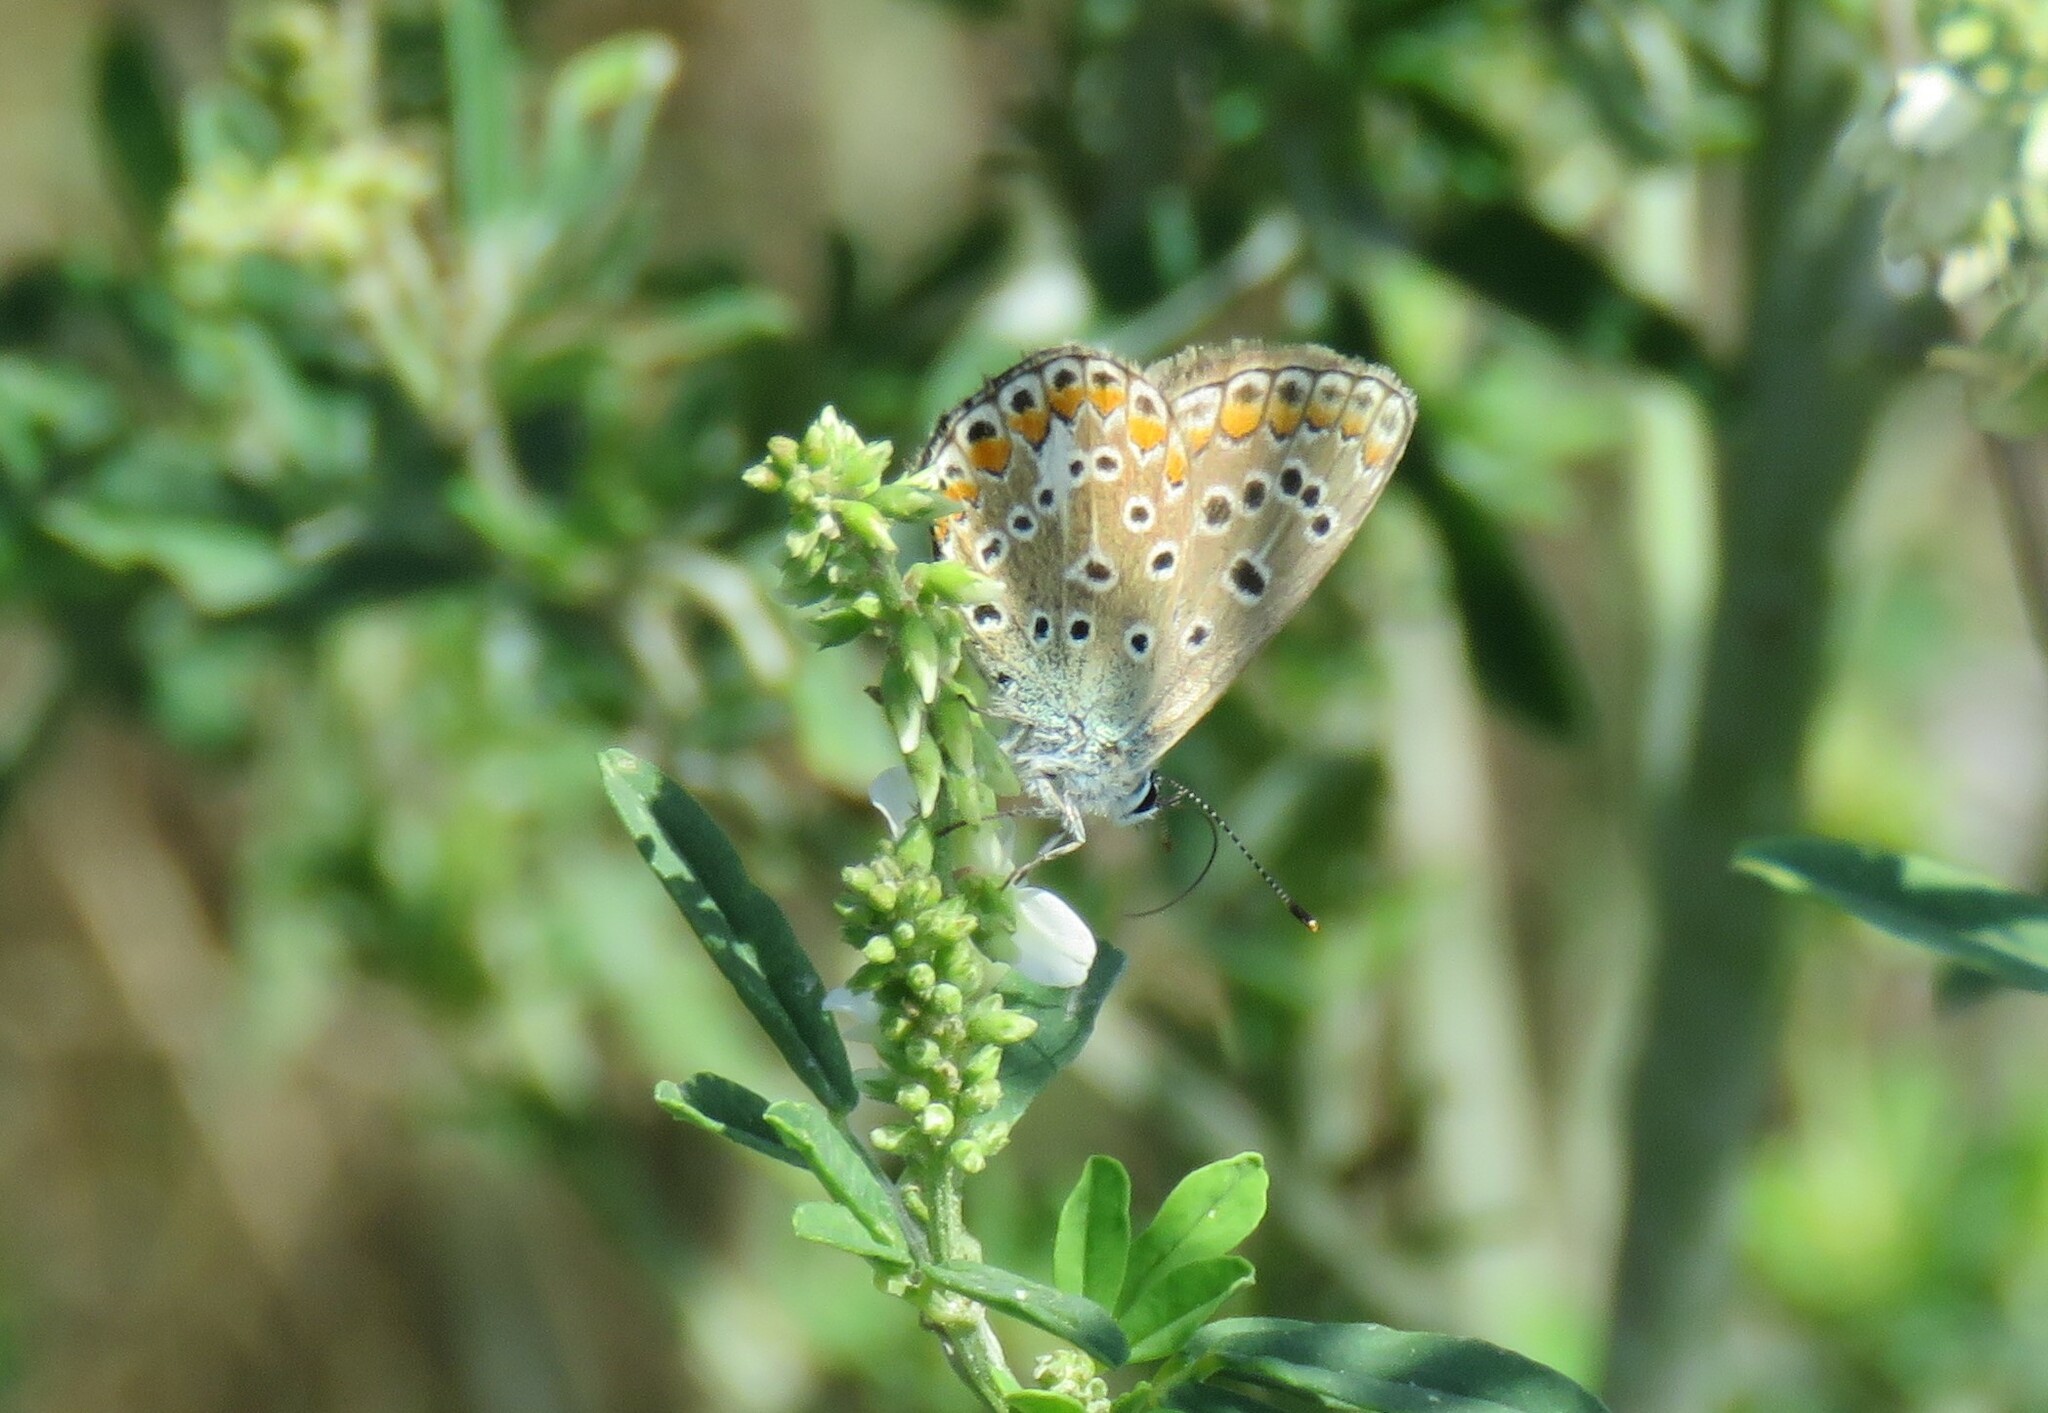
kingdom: Animalia
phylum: Arthropoda
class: Insecta
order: Lepidoptera
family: Lycaenidae
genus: Polyommatus
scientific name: Polyommatus icarus
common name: Common blue
